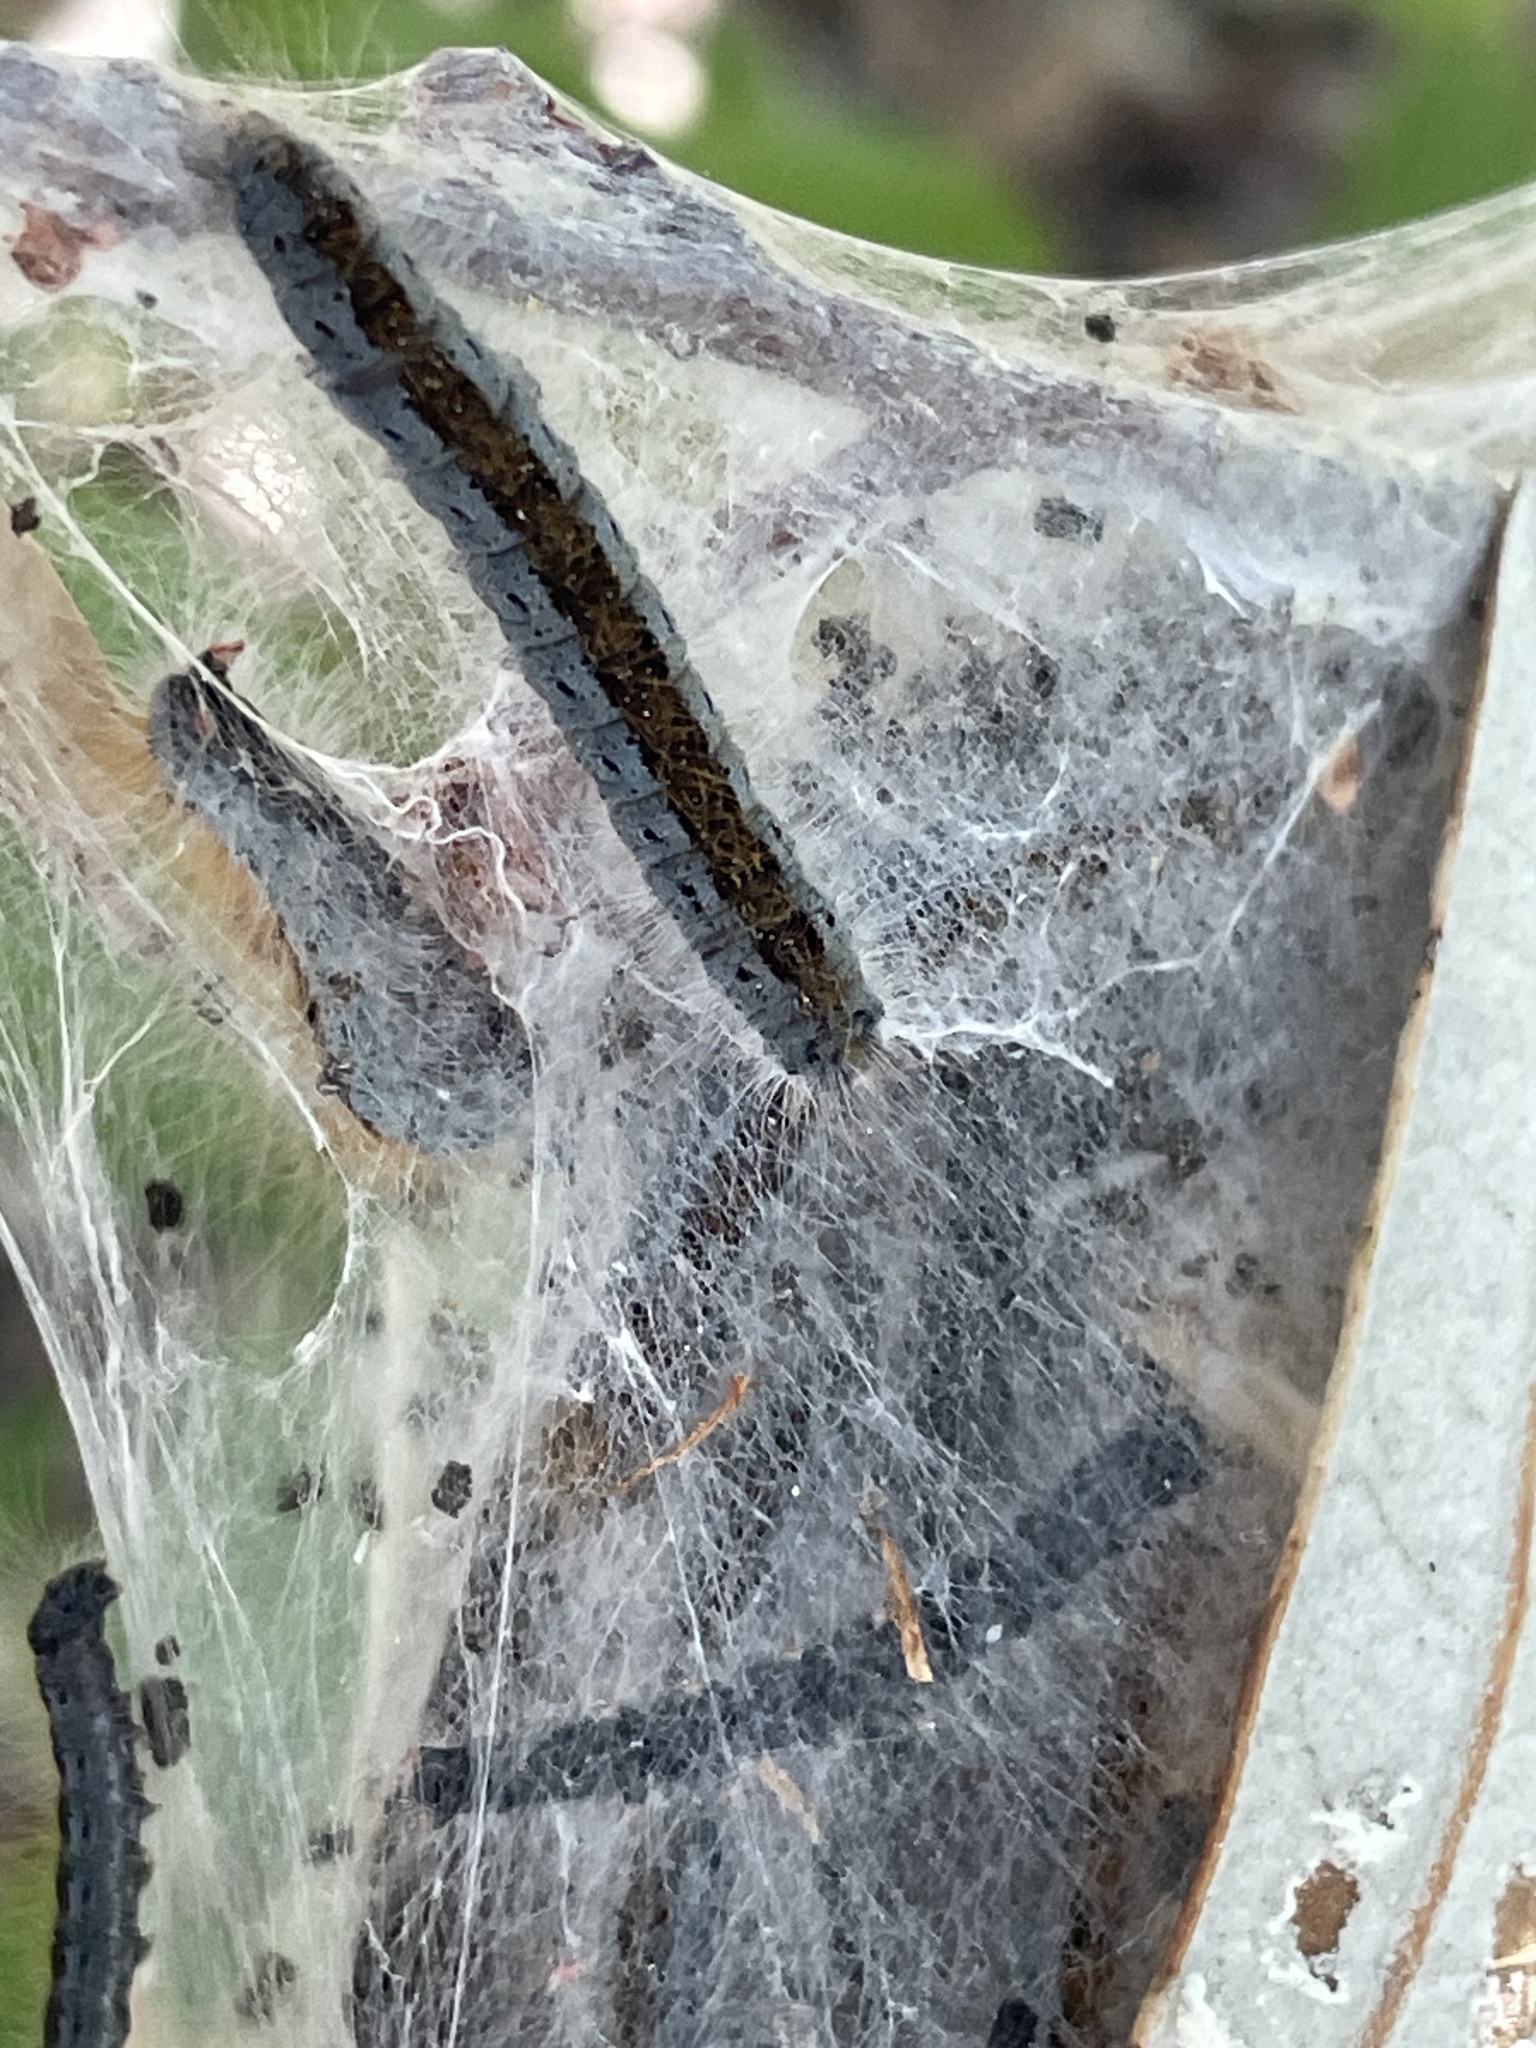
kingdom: Animalia
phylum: Arthropoda
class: Insecta
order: Lepidoptera
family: Lasiocampidae
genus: Malacosoma
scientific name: Malacosoma incurva
